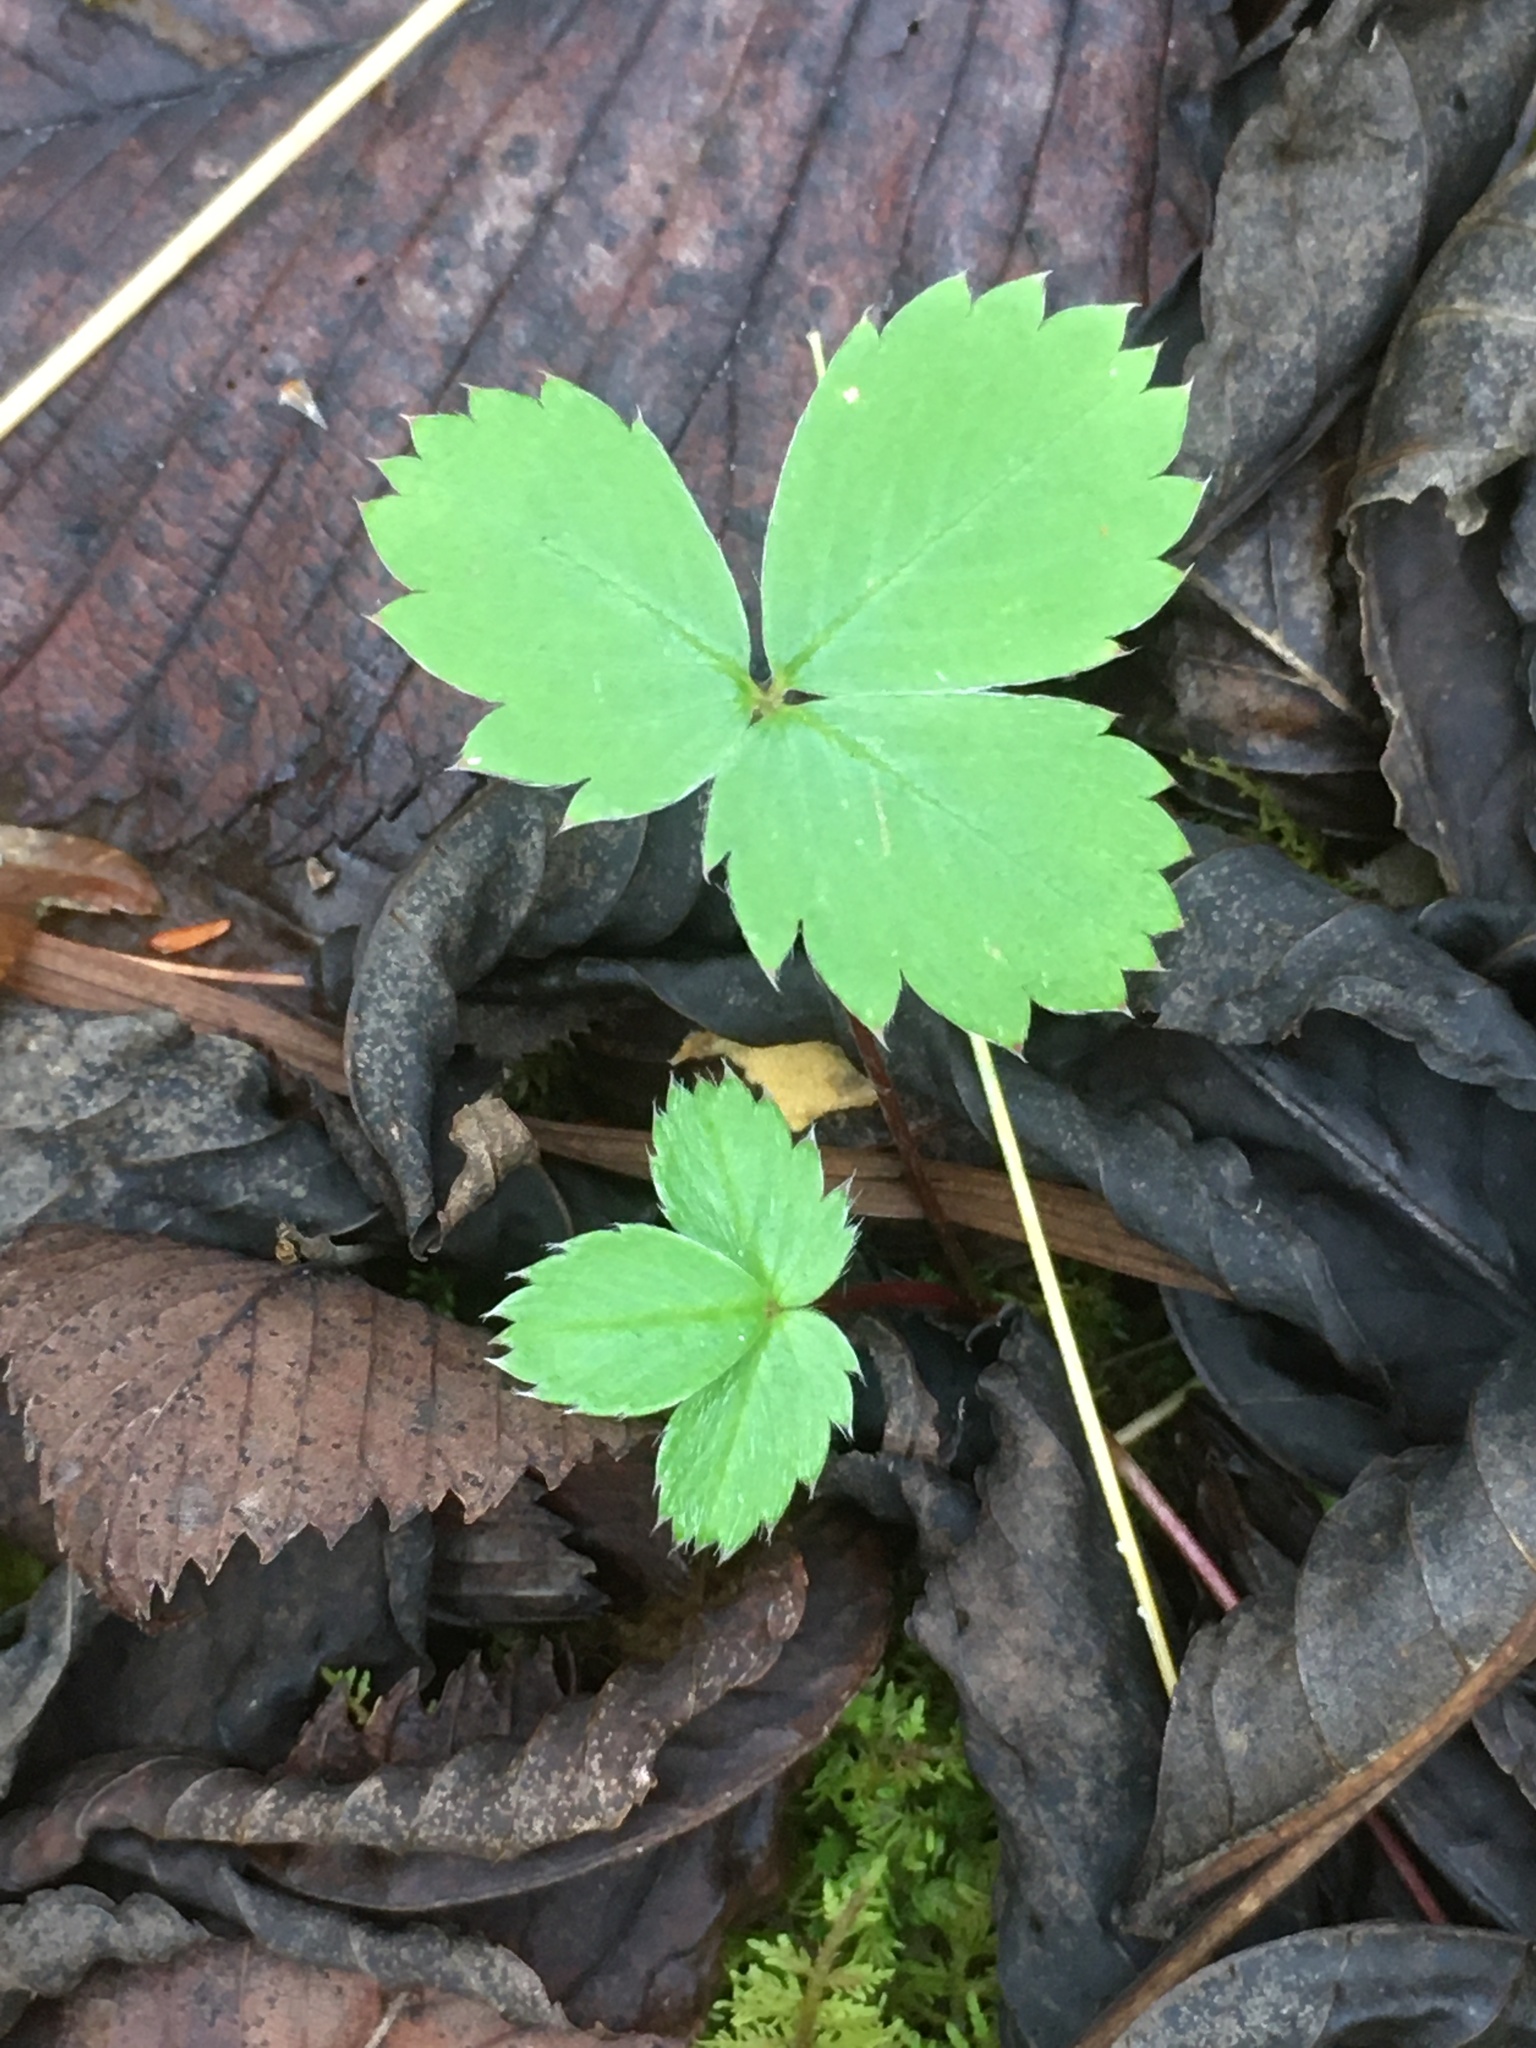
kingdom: Plantae
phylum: Tracheophyta
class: Magnoliopsida
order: Rosales
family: Rosaceae
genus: Fragaria
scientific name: Fragaria virginiana
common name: Thickleaved wild strawberry
